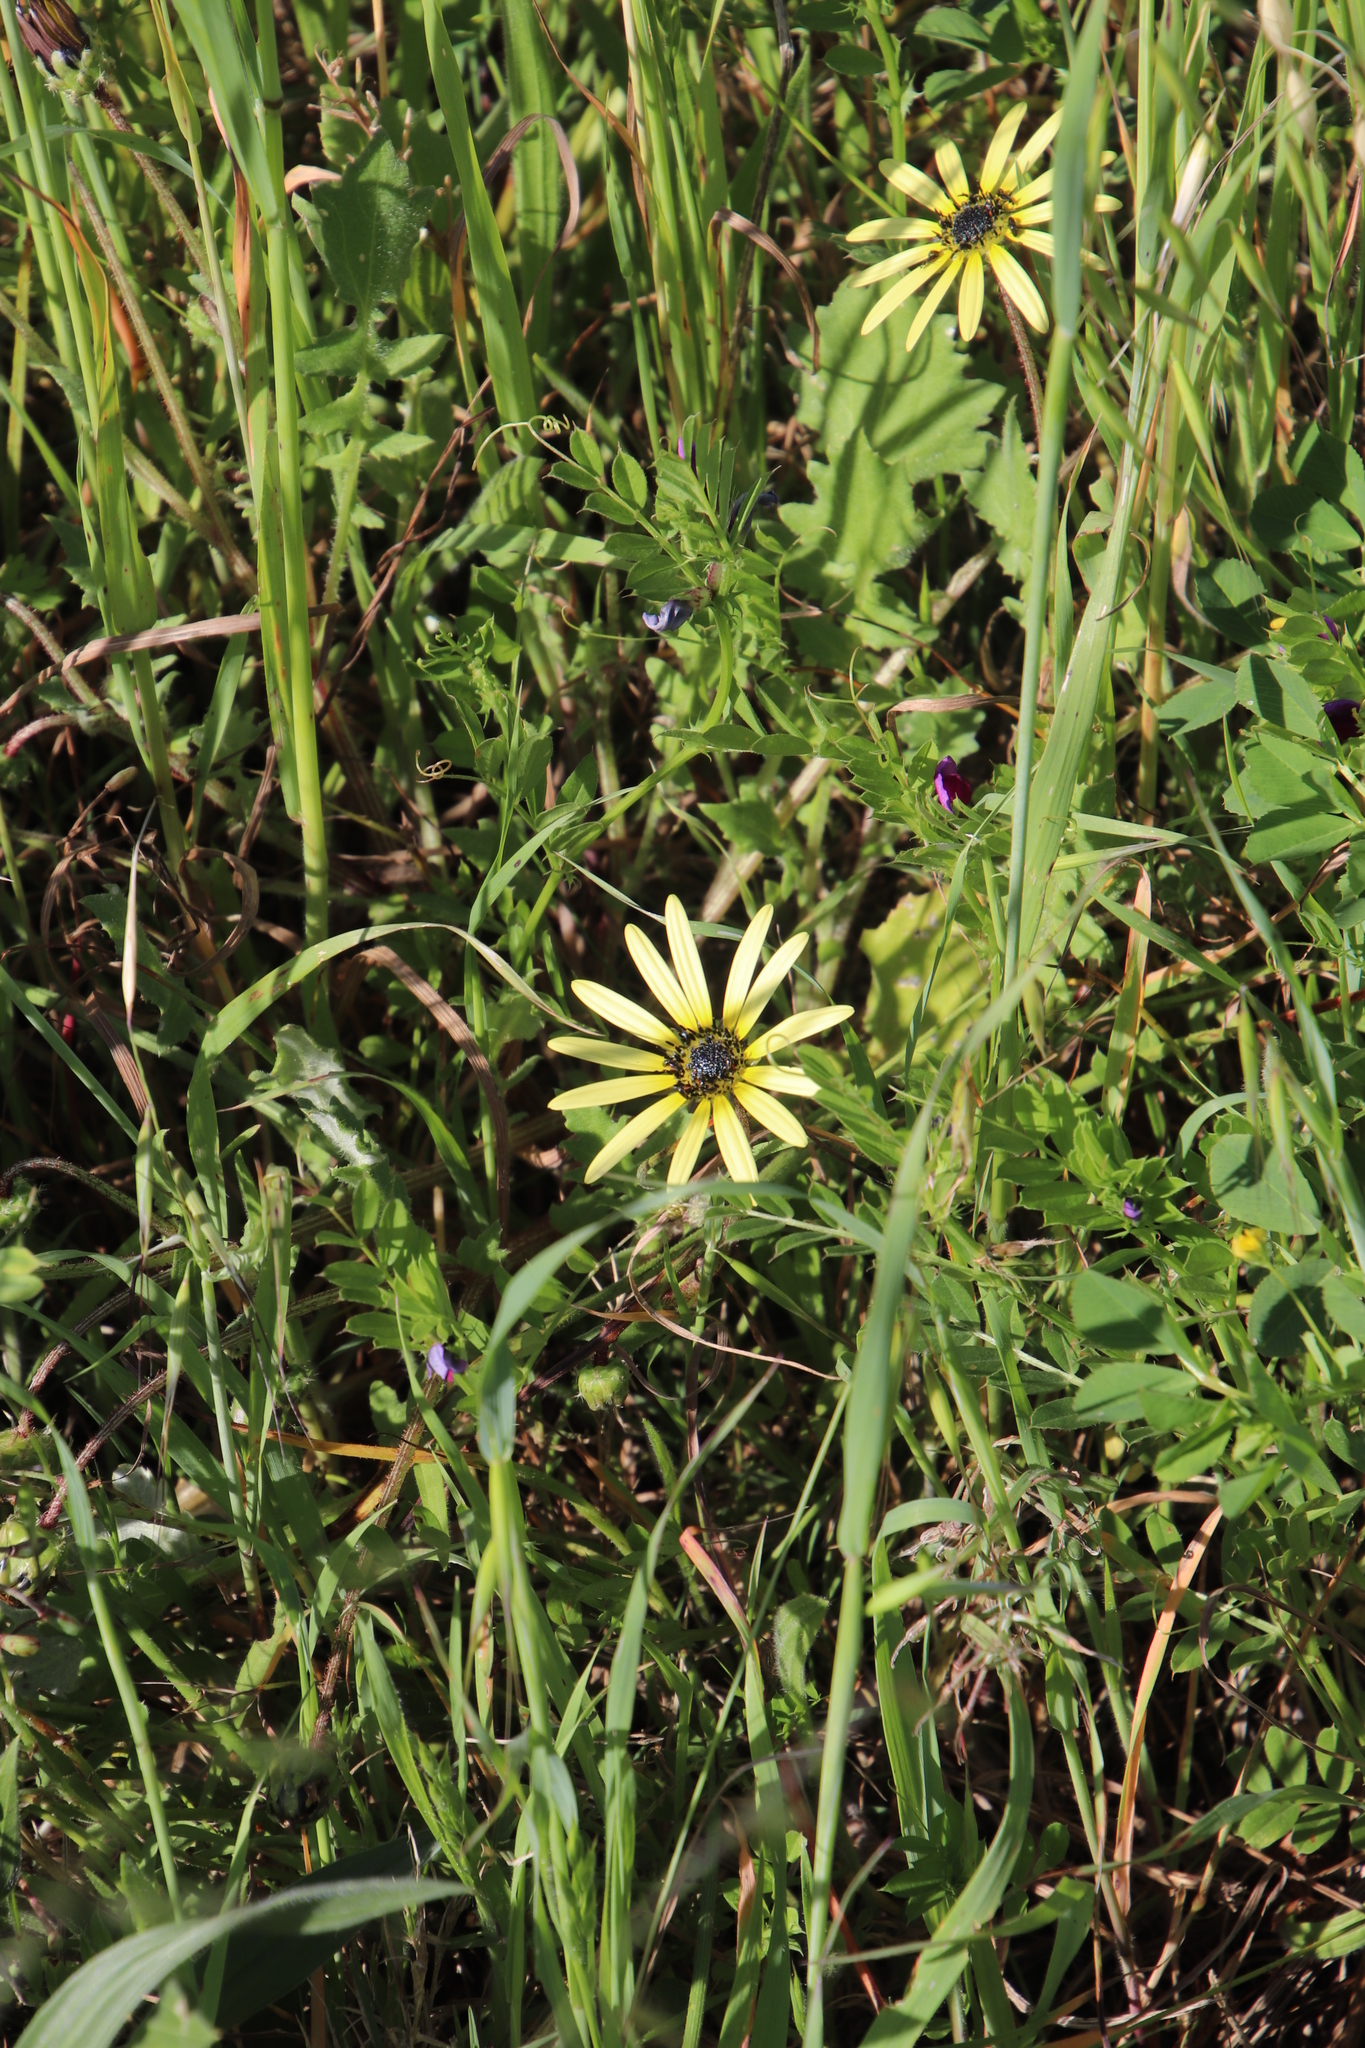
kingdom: Plantae
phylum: Tracheophyta
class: Magnoliopsida
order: Asterales
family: Asteraceae
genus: Arctotheca
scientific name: Arctotheca calendula
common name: Capeweed
